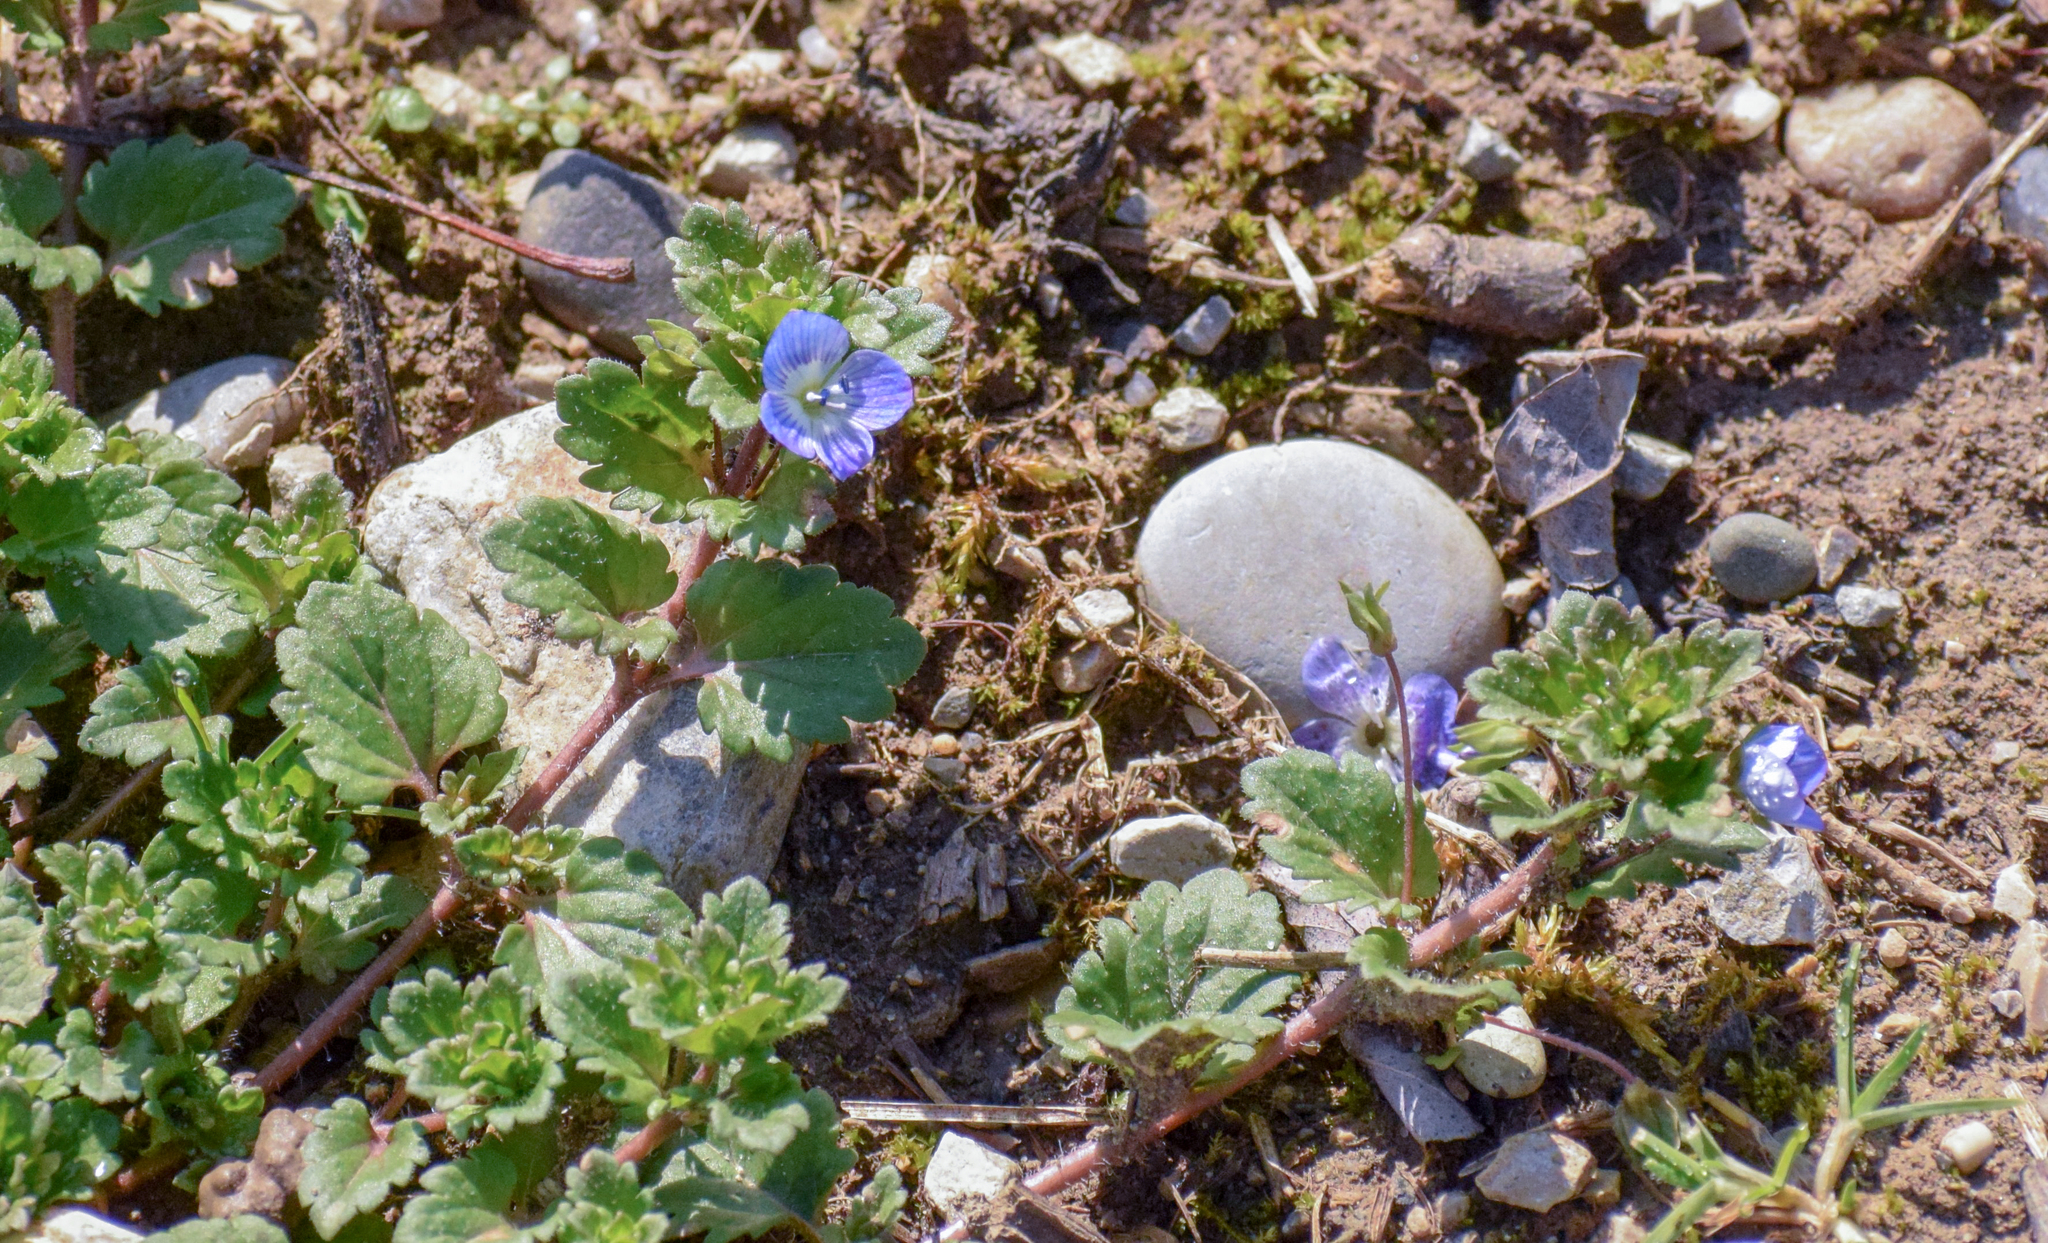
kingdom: Plantae
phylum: Tracheophyta
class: Magnoliopsida
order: Lamiales
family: Plantaginaceae
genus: Veronica
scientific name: Veronica persica
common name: Common field-speedwell
